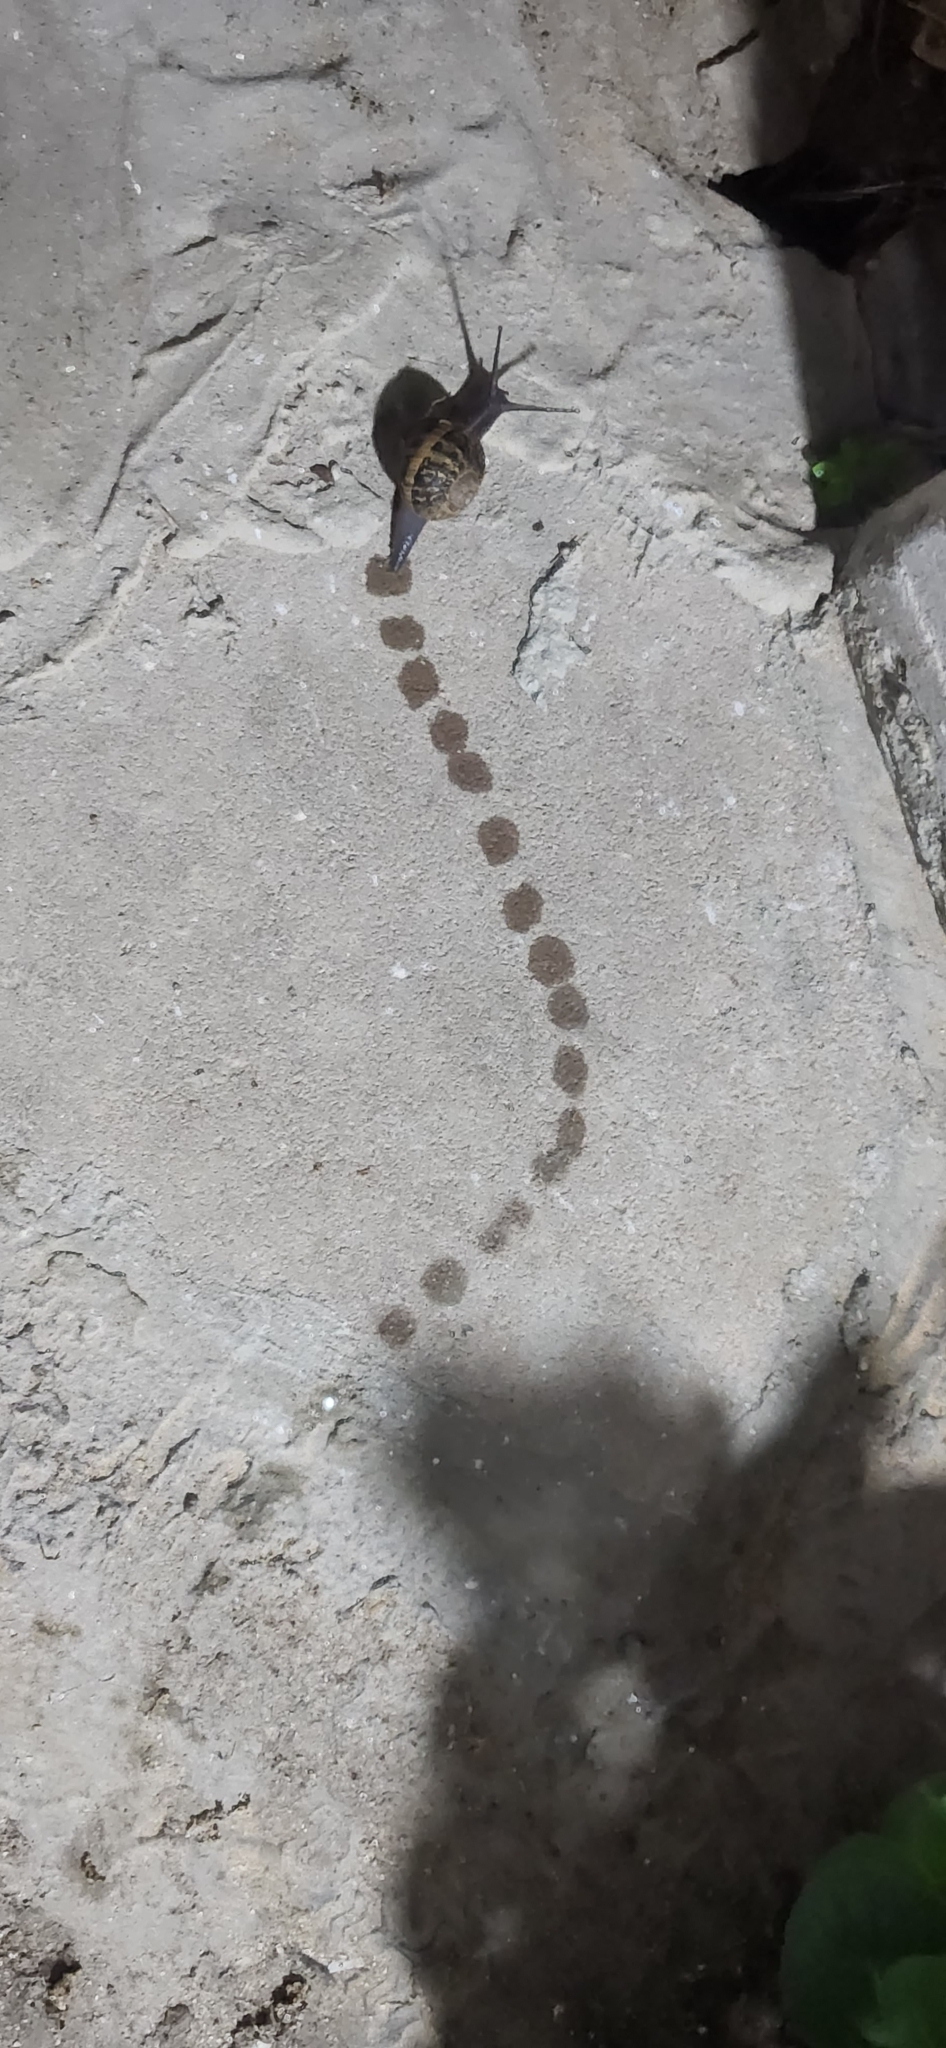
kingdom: Animalia
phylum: Mollusca
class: Gastropoda
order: Stylommatophora
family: Helicidae
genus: Cornu
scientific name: Cornu aspersum
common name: Brown garden snail
